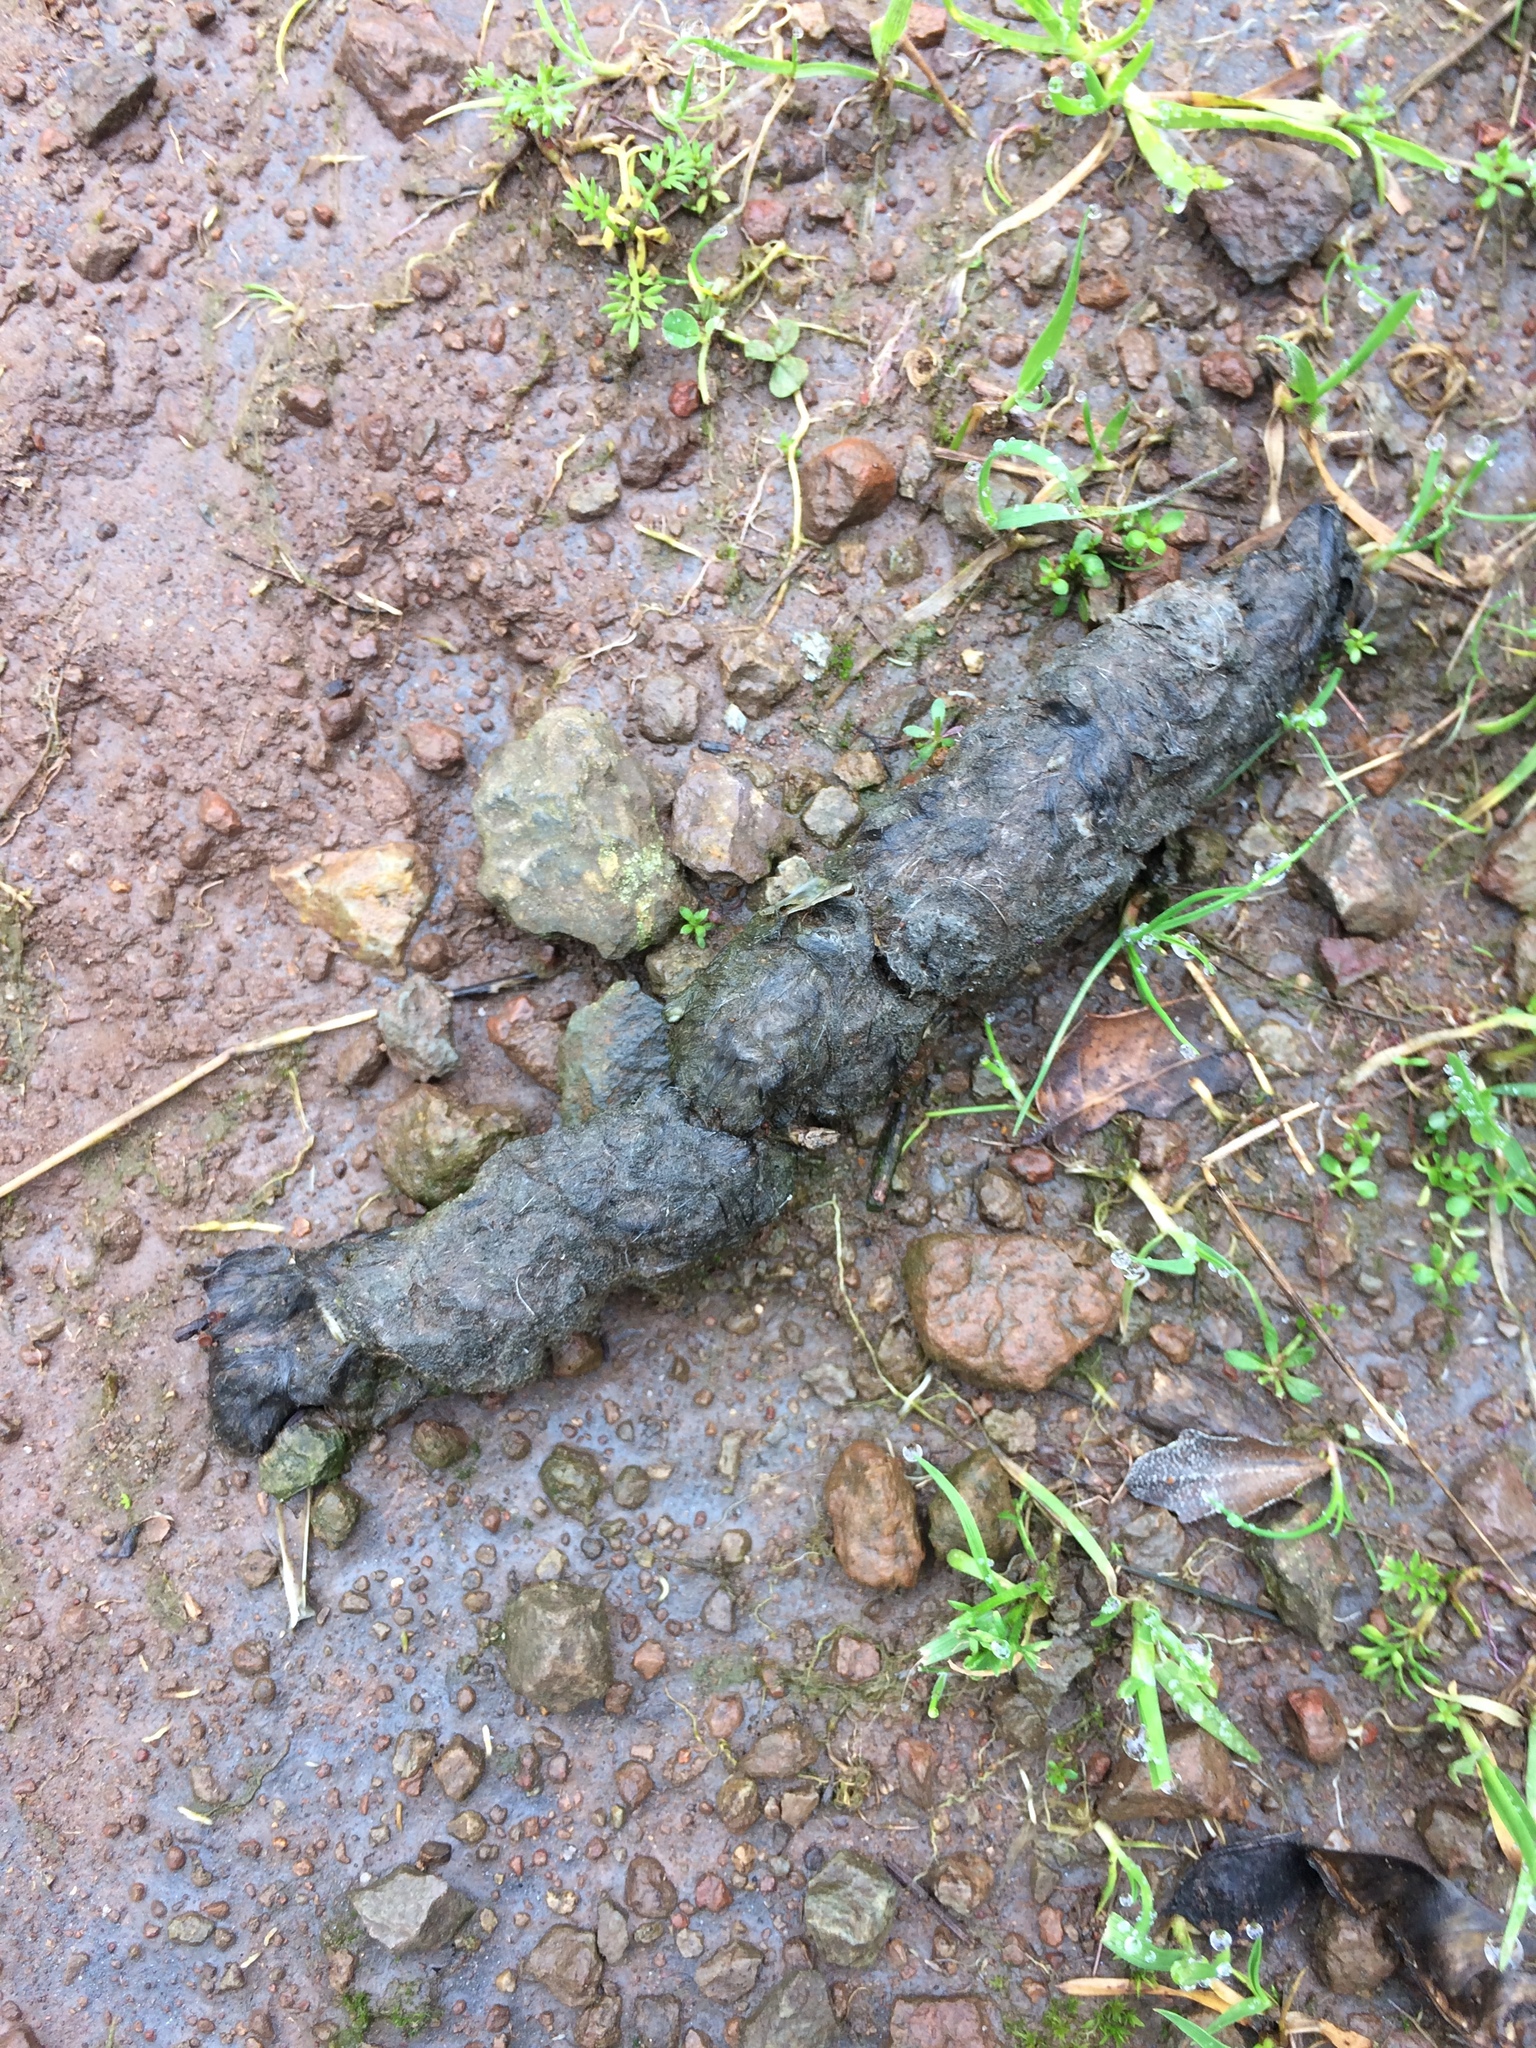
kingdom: Animalia
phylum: Chordata
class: Mammalia
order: Carnivora
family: Felidae
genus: Lynx
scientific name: Lynx rufus
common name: Bobcat
